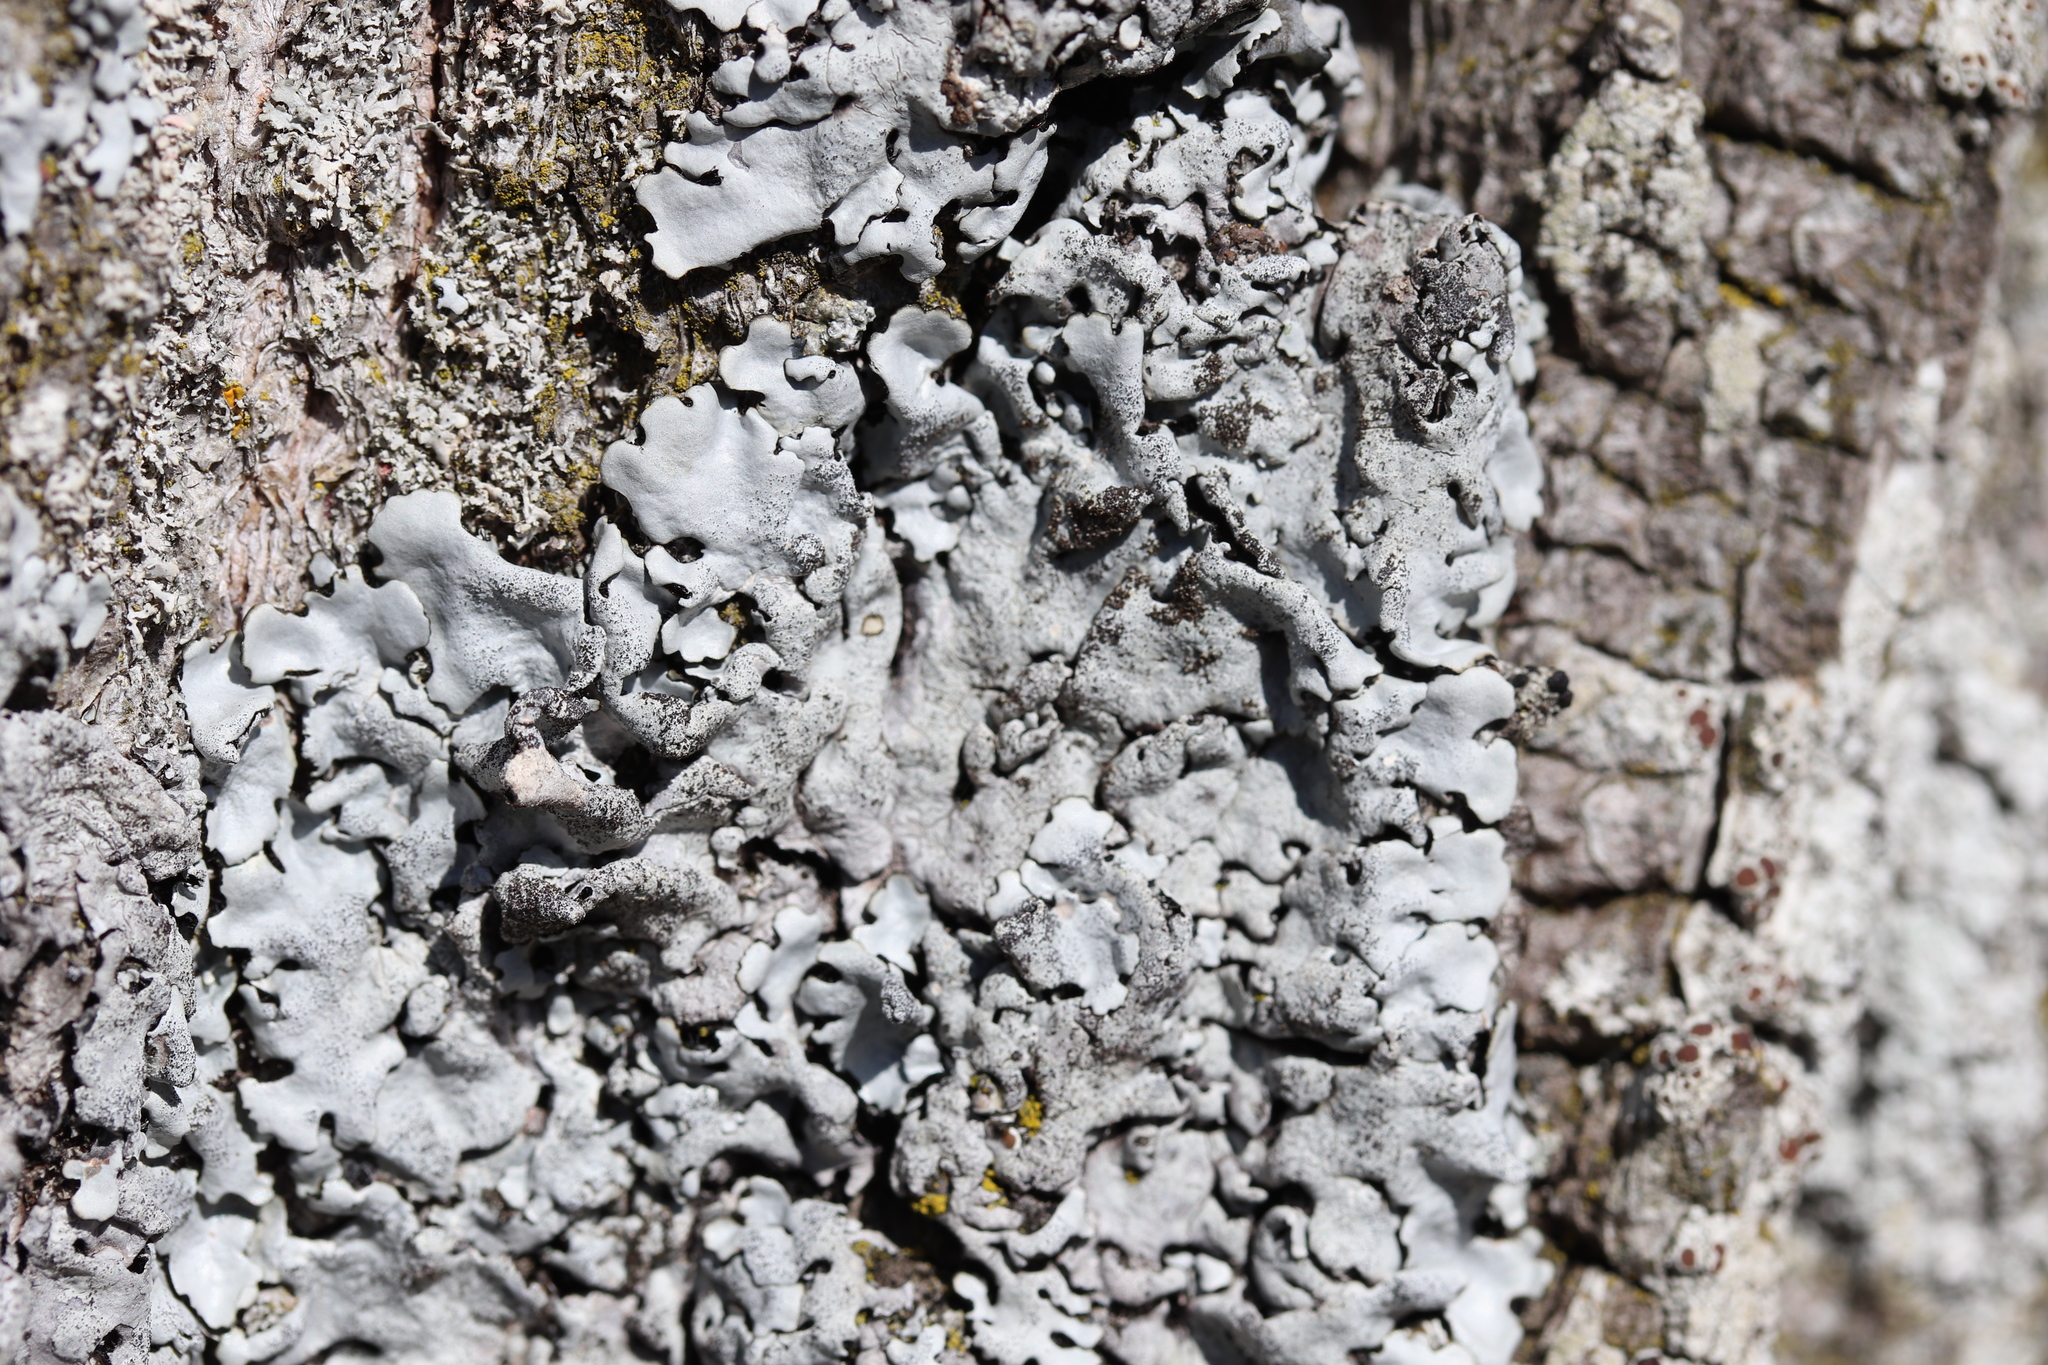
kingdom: Fungi
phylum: Ascomycota
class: Lecanoromycetes
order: Lecanorales
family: Parmeliaceae
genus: Parmelina
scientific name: Parmelina pastillifera
